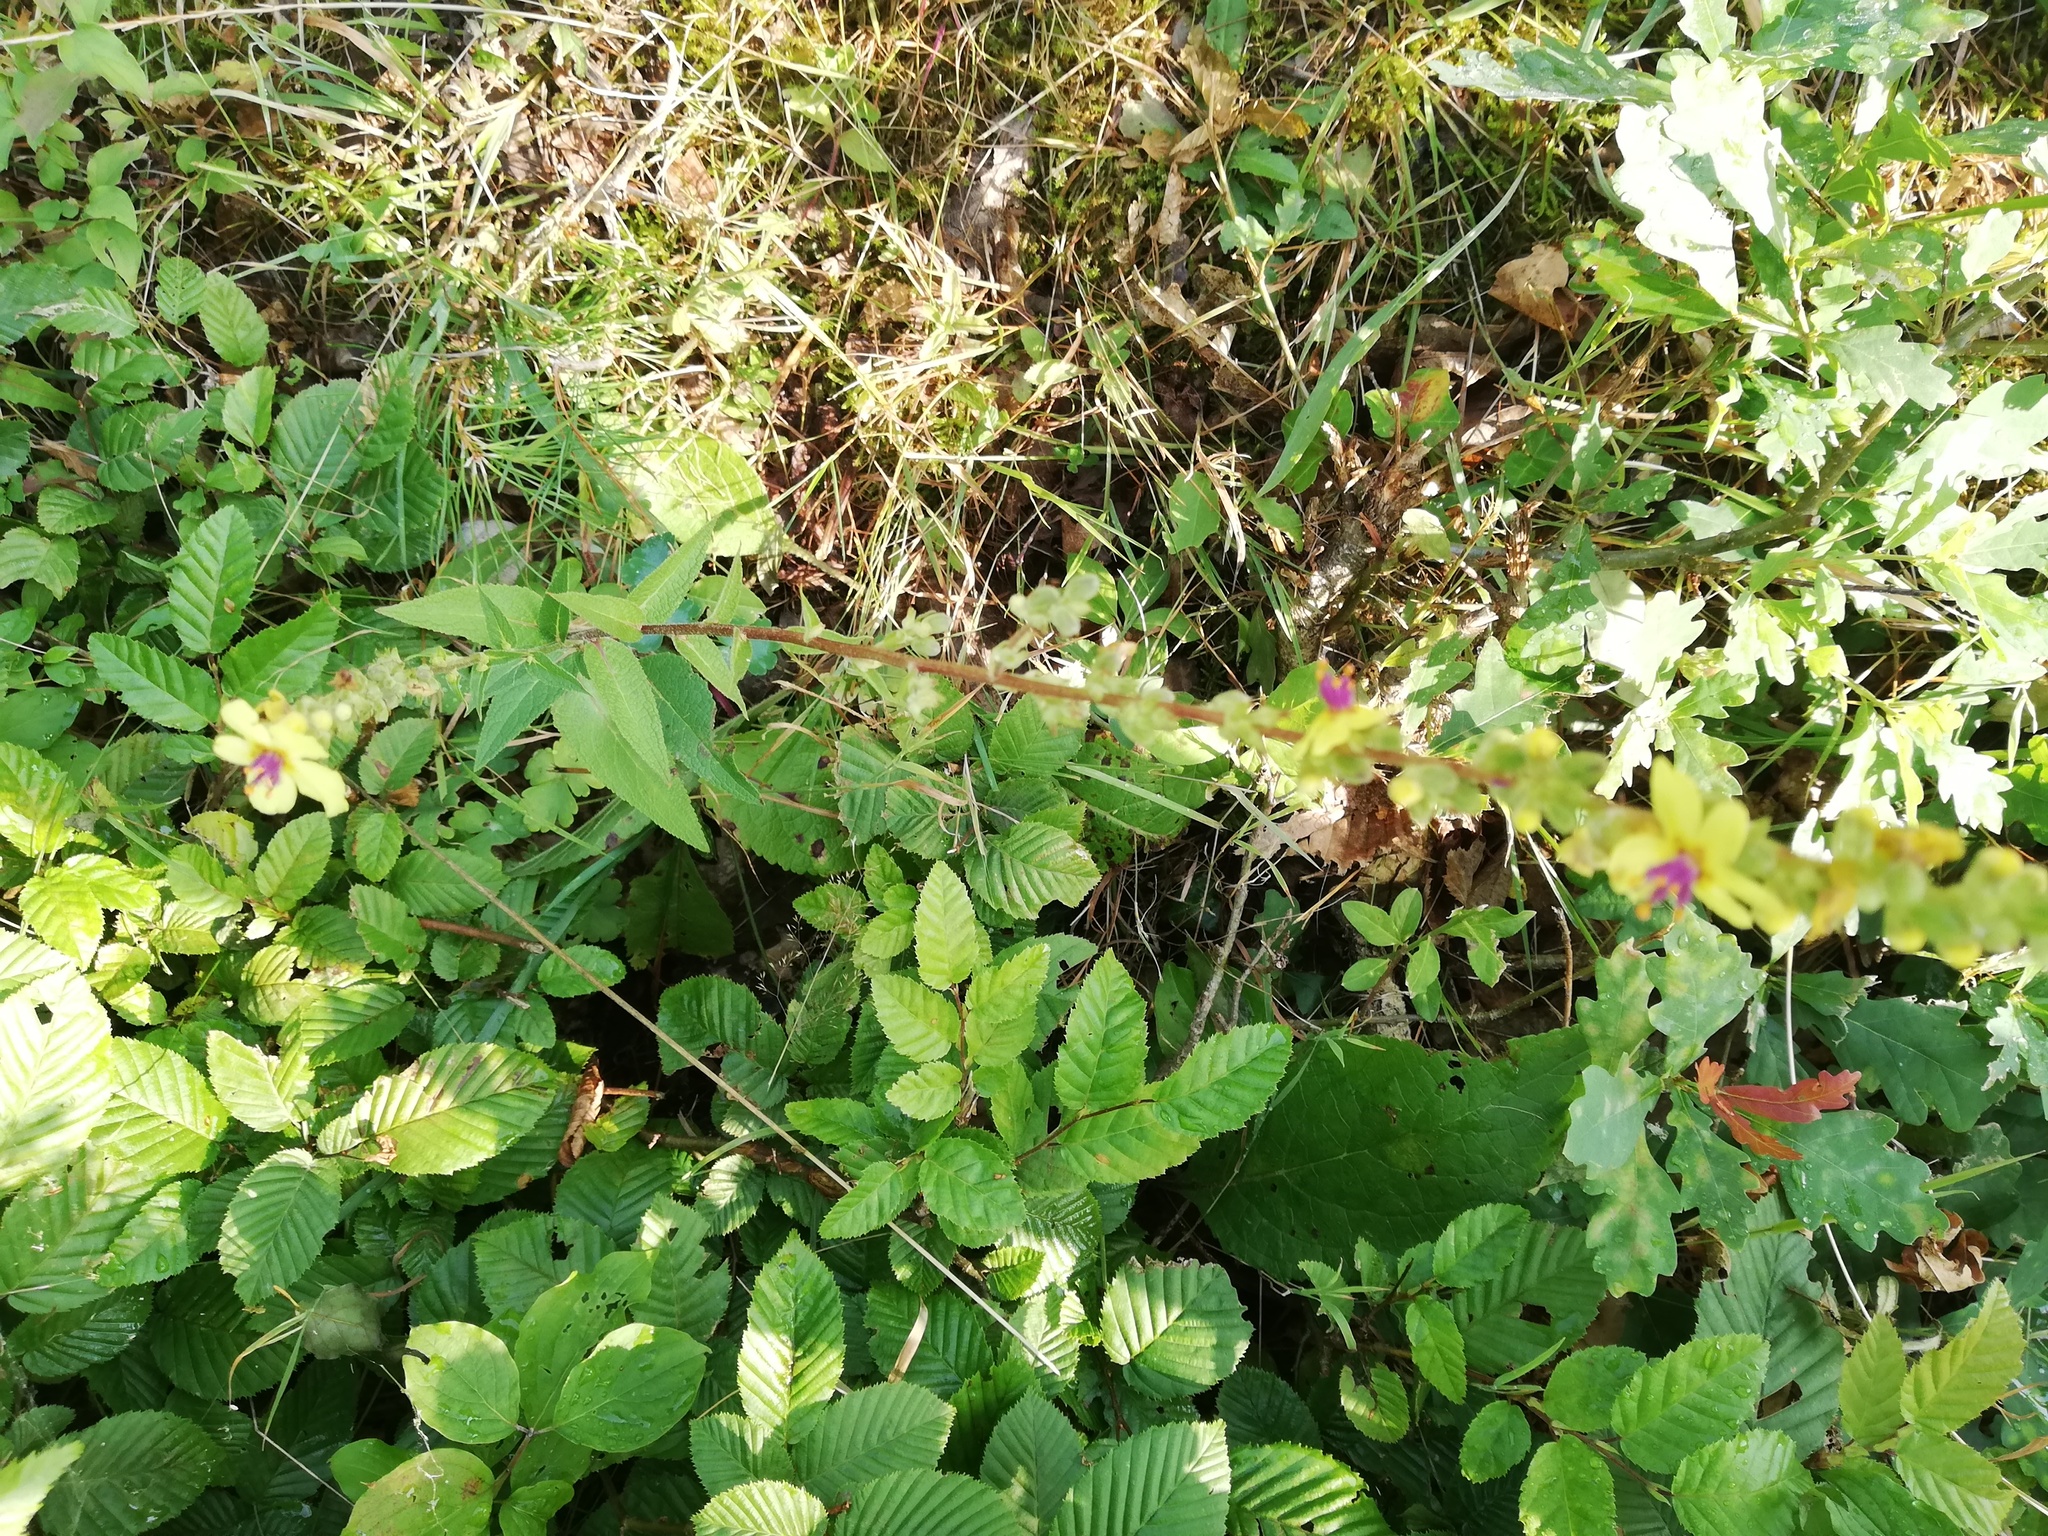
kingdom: Plantae
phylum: Tracheophyta
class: Magnoliopsida
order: Lamiales
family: Scrophulariaceae
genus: Verbascum
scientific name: Verbascum nigrum
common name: Dark mullein
